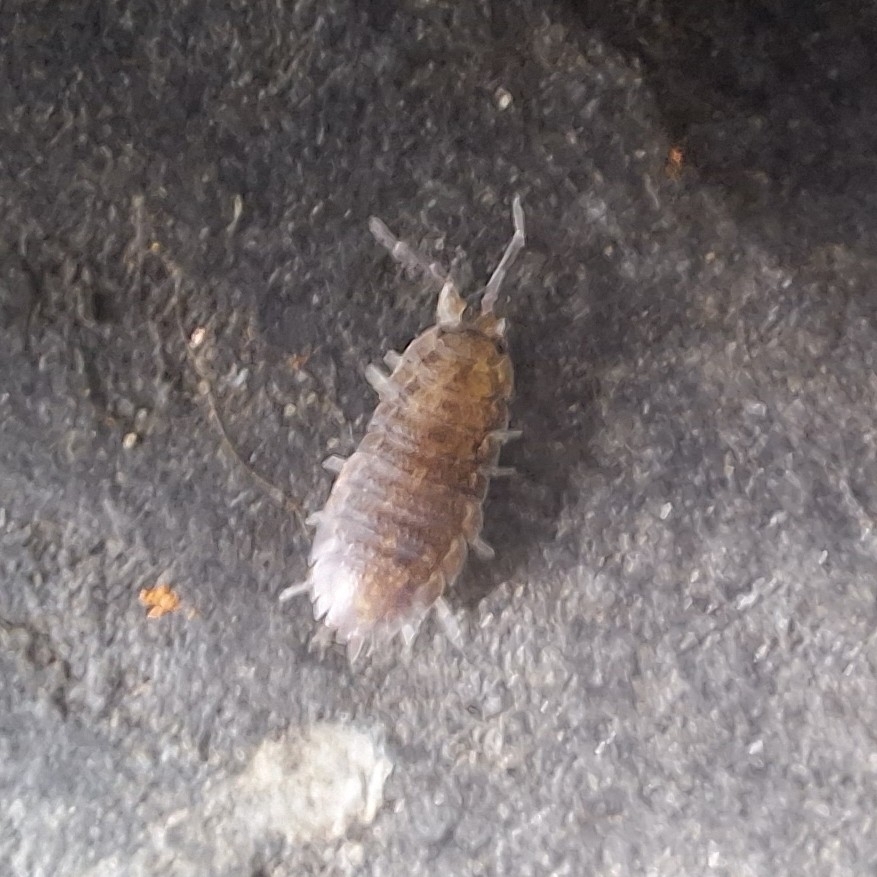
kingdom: Animalia
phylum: Arthropoda
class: Malacostraca
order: Isopoda
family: Porcellionidae
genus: Porcellio
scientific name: Porcellio scaber
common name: Common rough woodlouse
